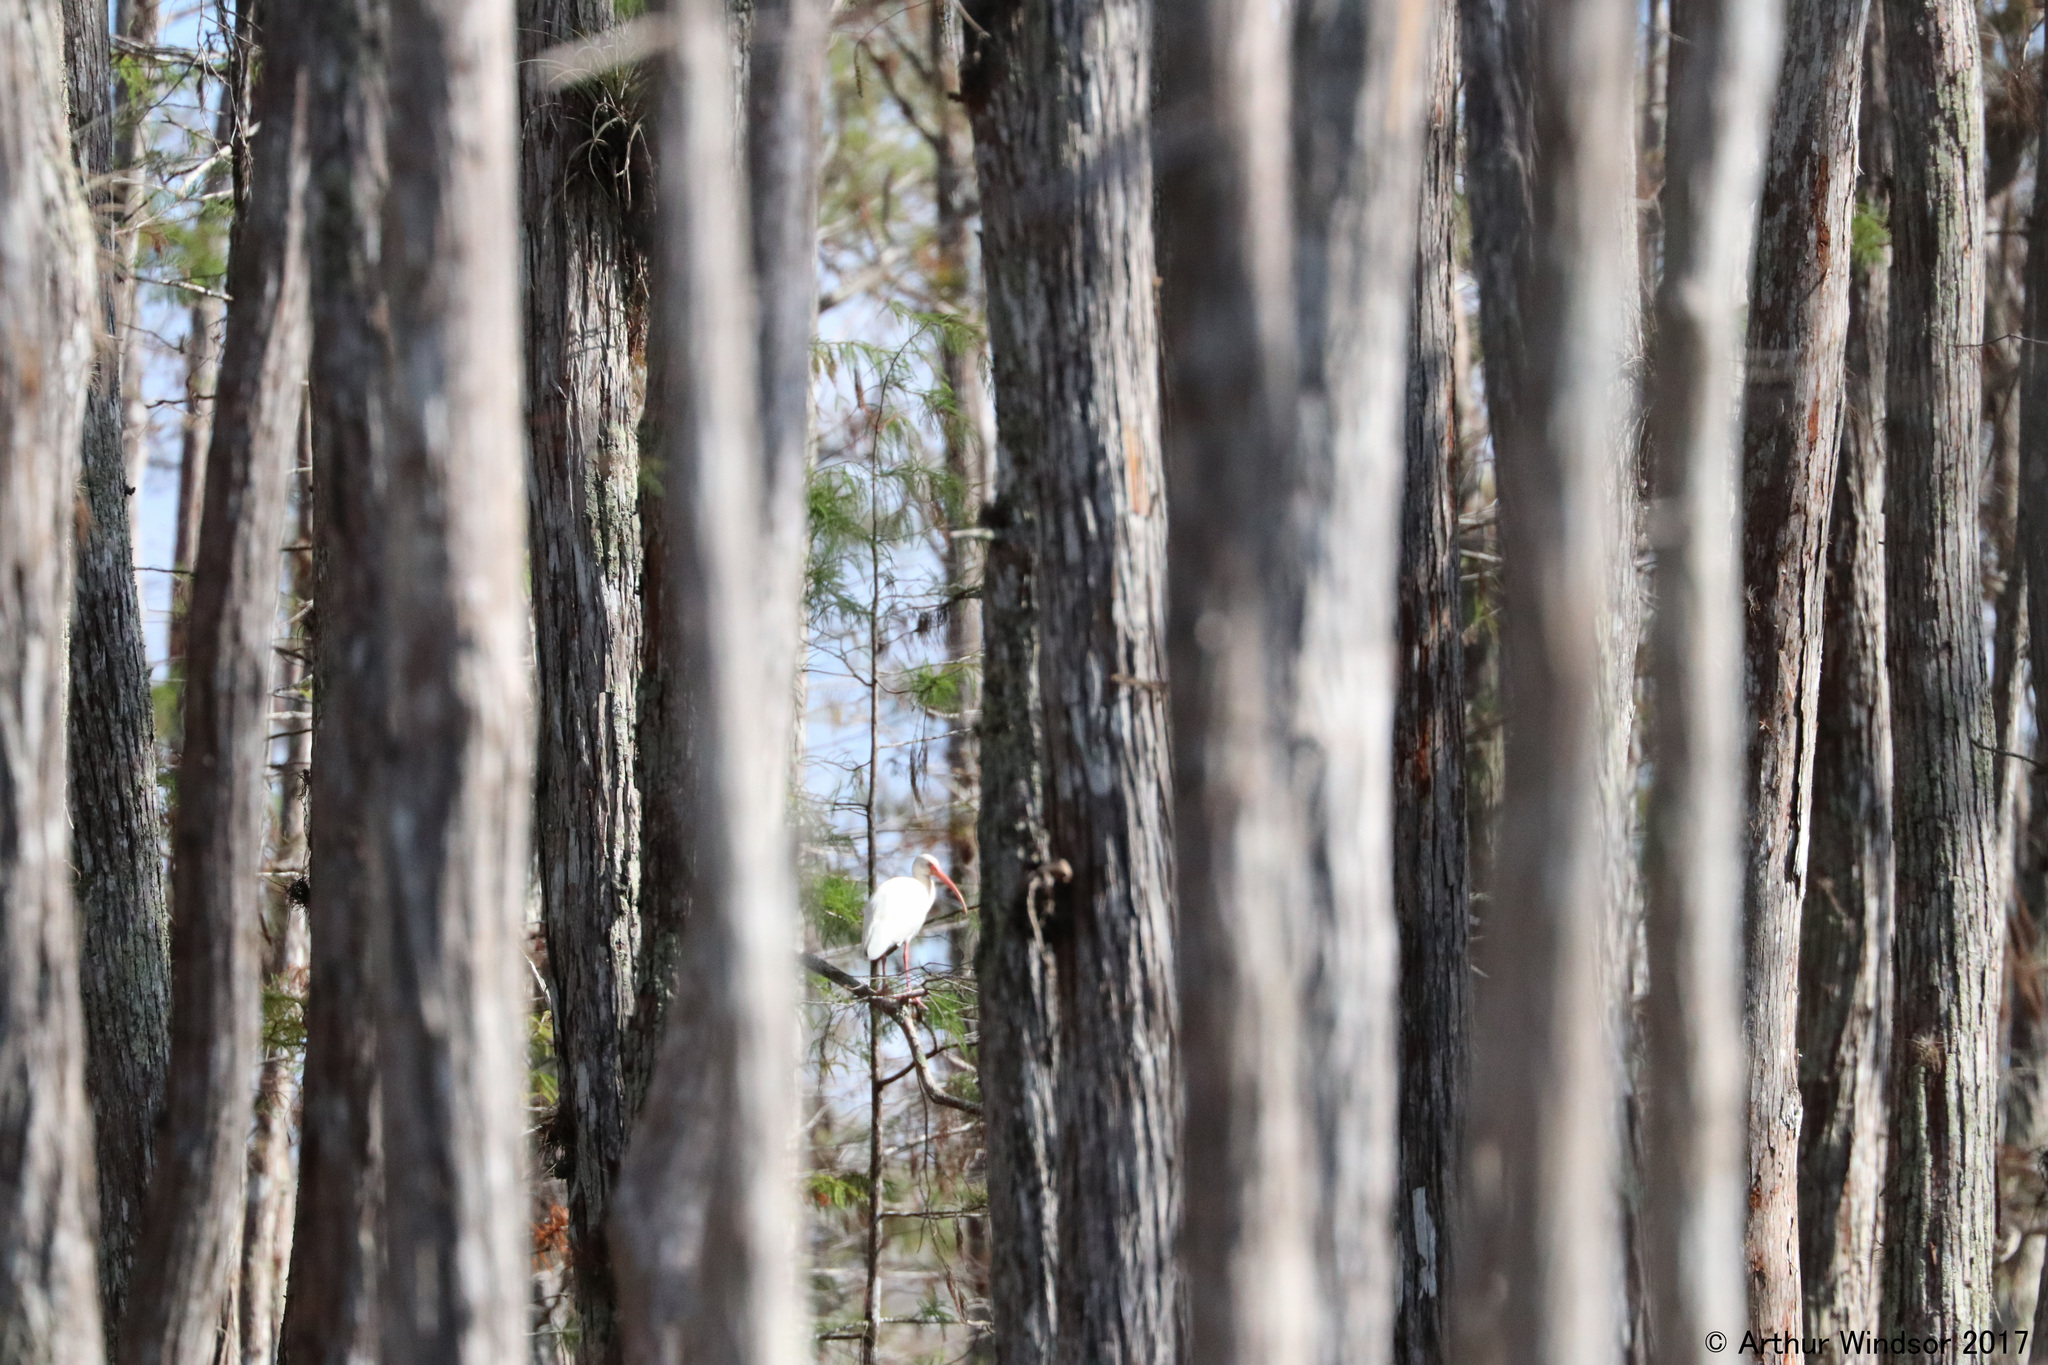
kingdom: Animalia
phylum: Chordata
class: Aves
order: Pelecaniformes
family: Threskiornithidae
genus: Eudocimus
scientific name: Eudocimus albus
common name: White ibis
